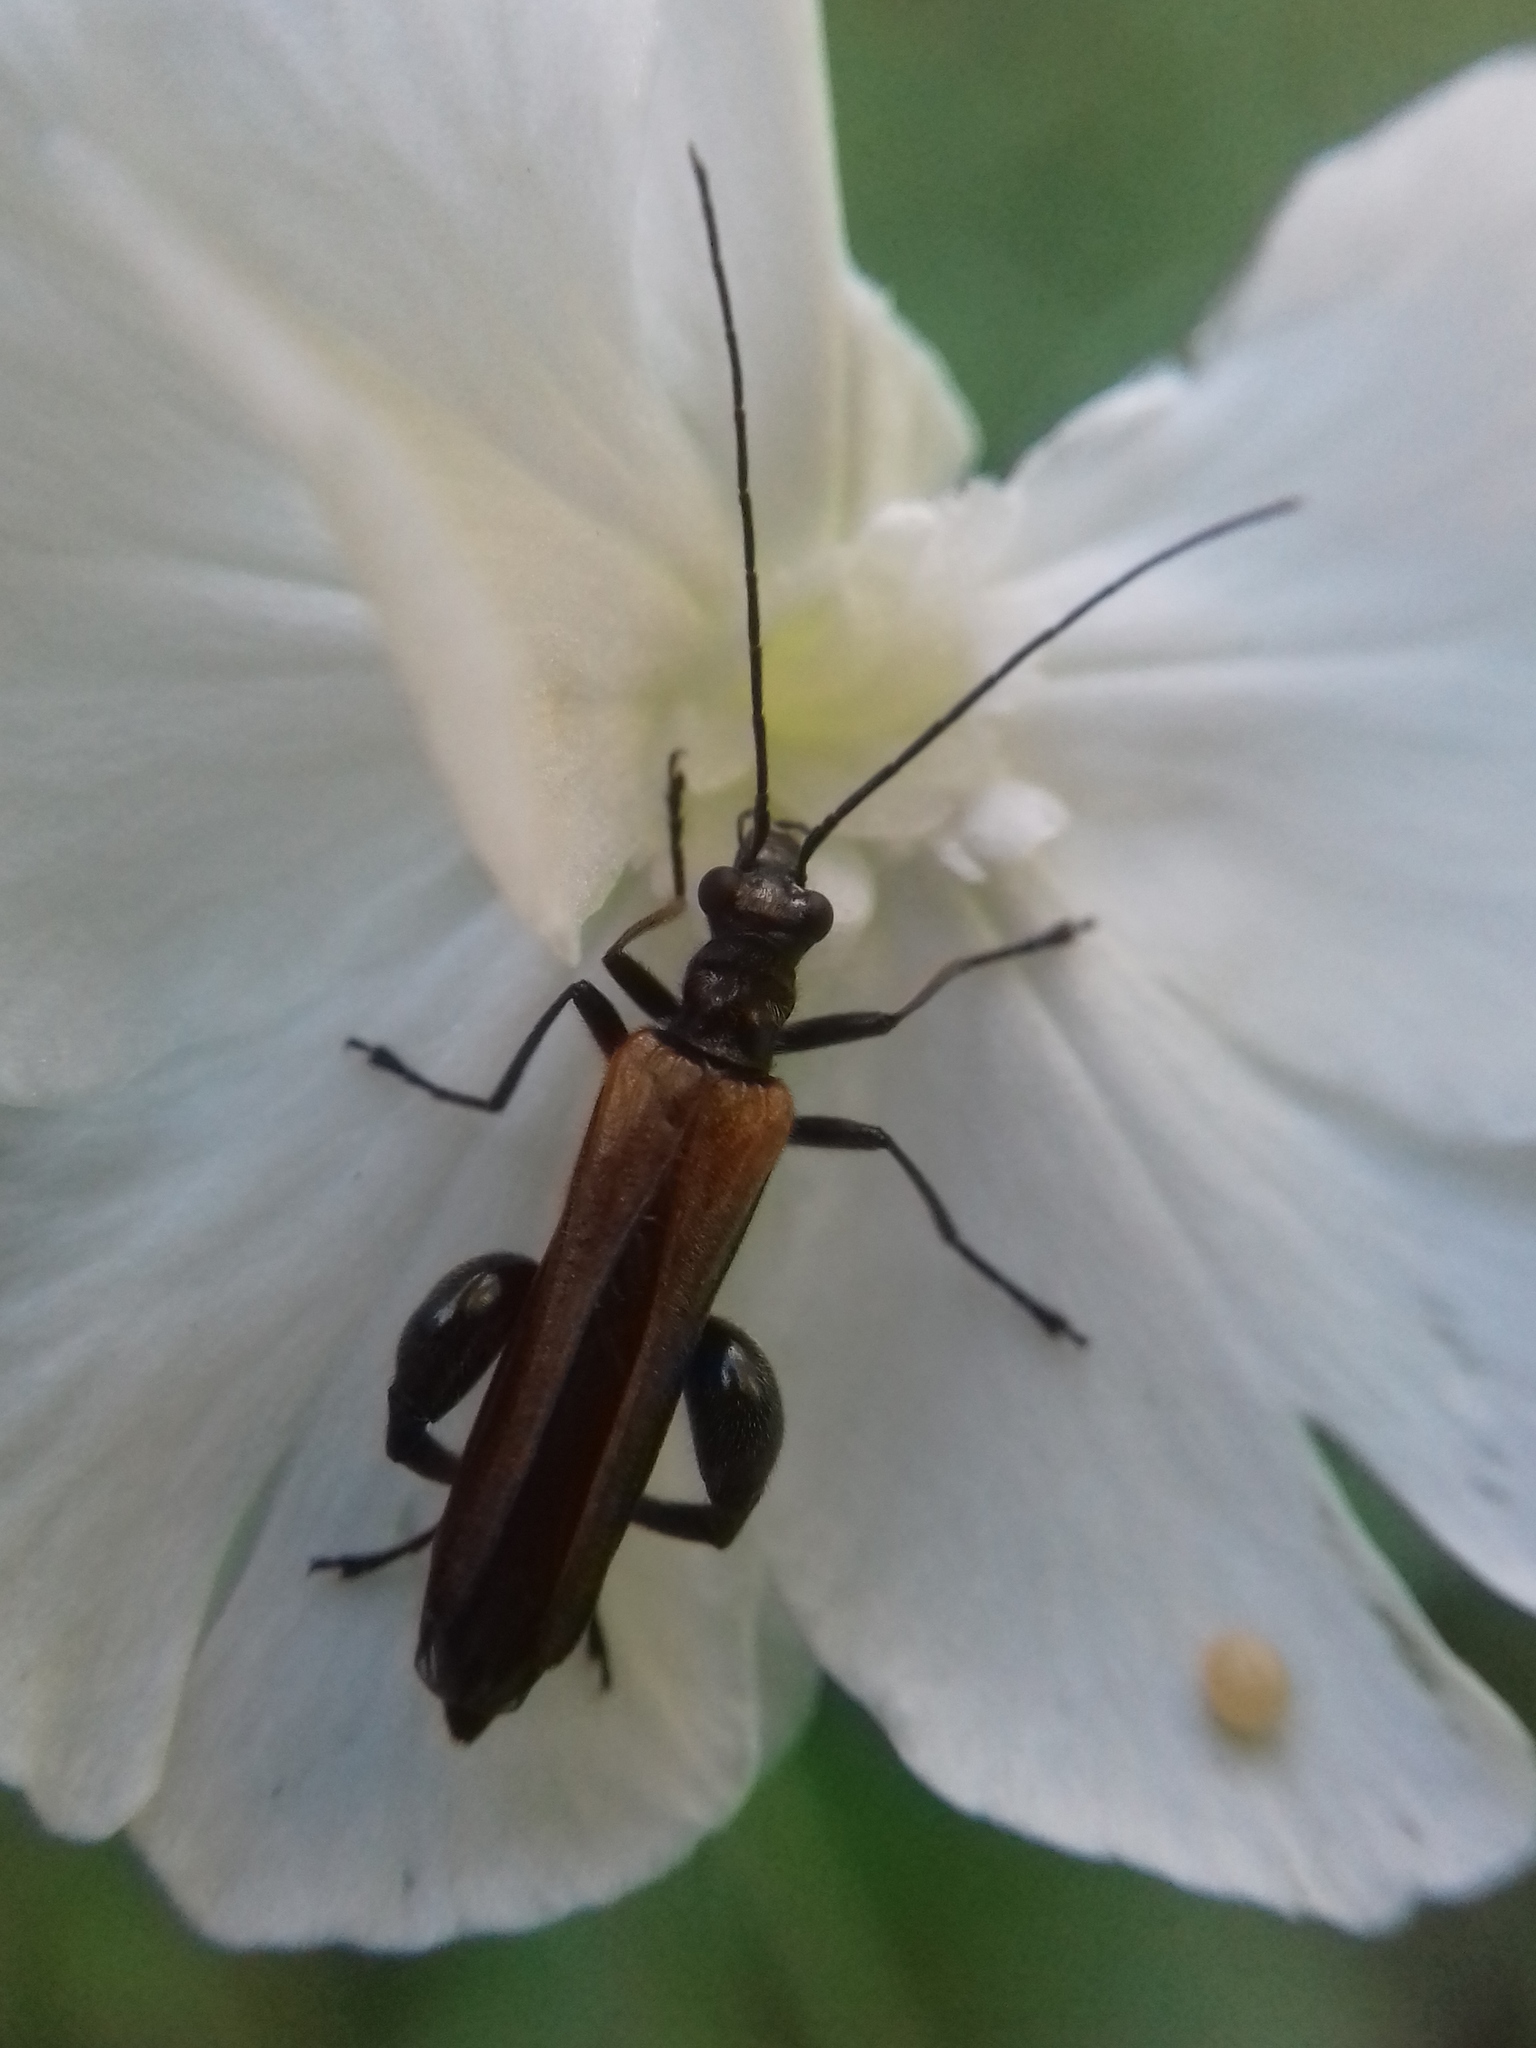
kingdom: Animalia
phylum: Arthropoda
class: Insecta
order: Coleoptera
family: Oedemeridae
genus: Oedemera
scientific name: Oedemera femorata
